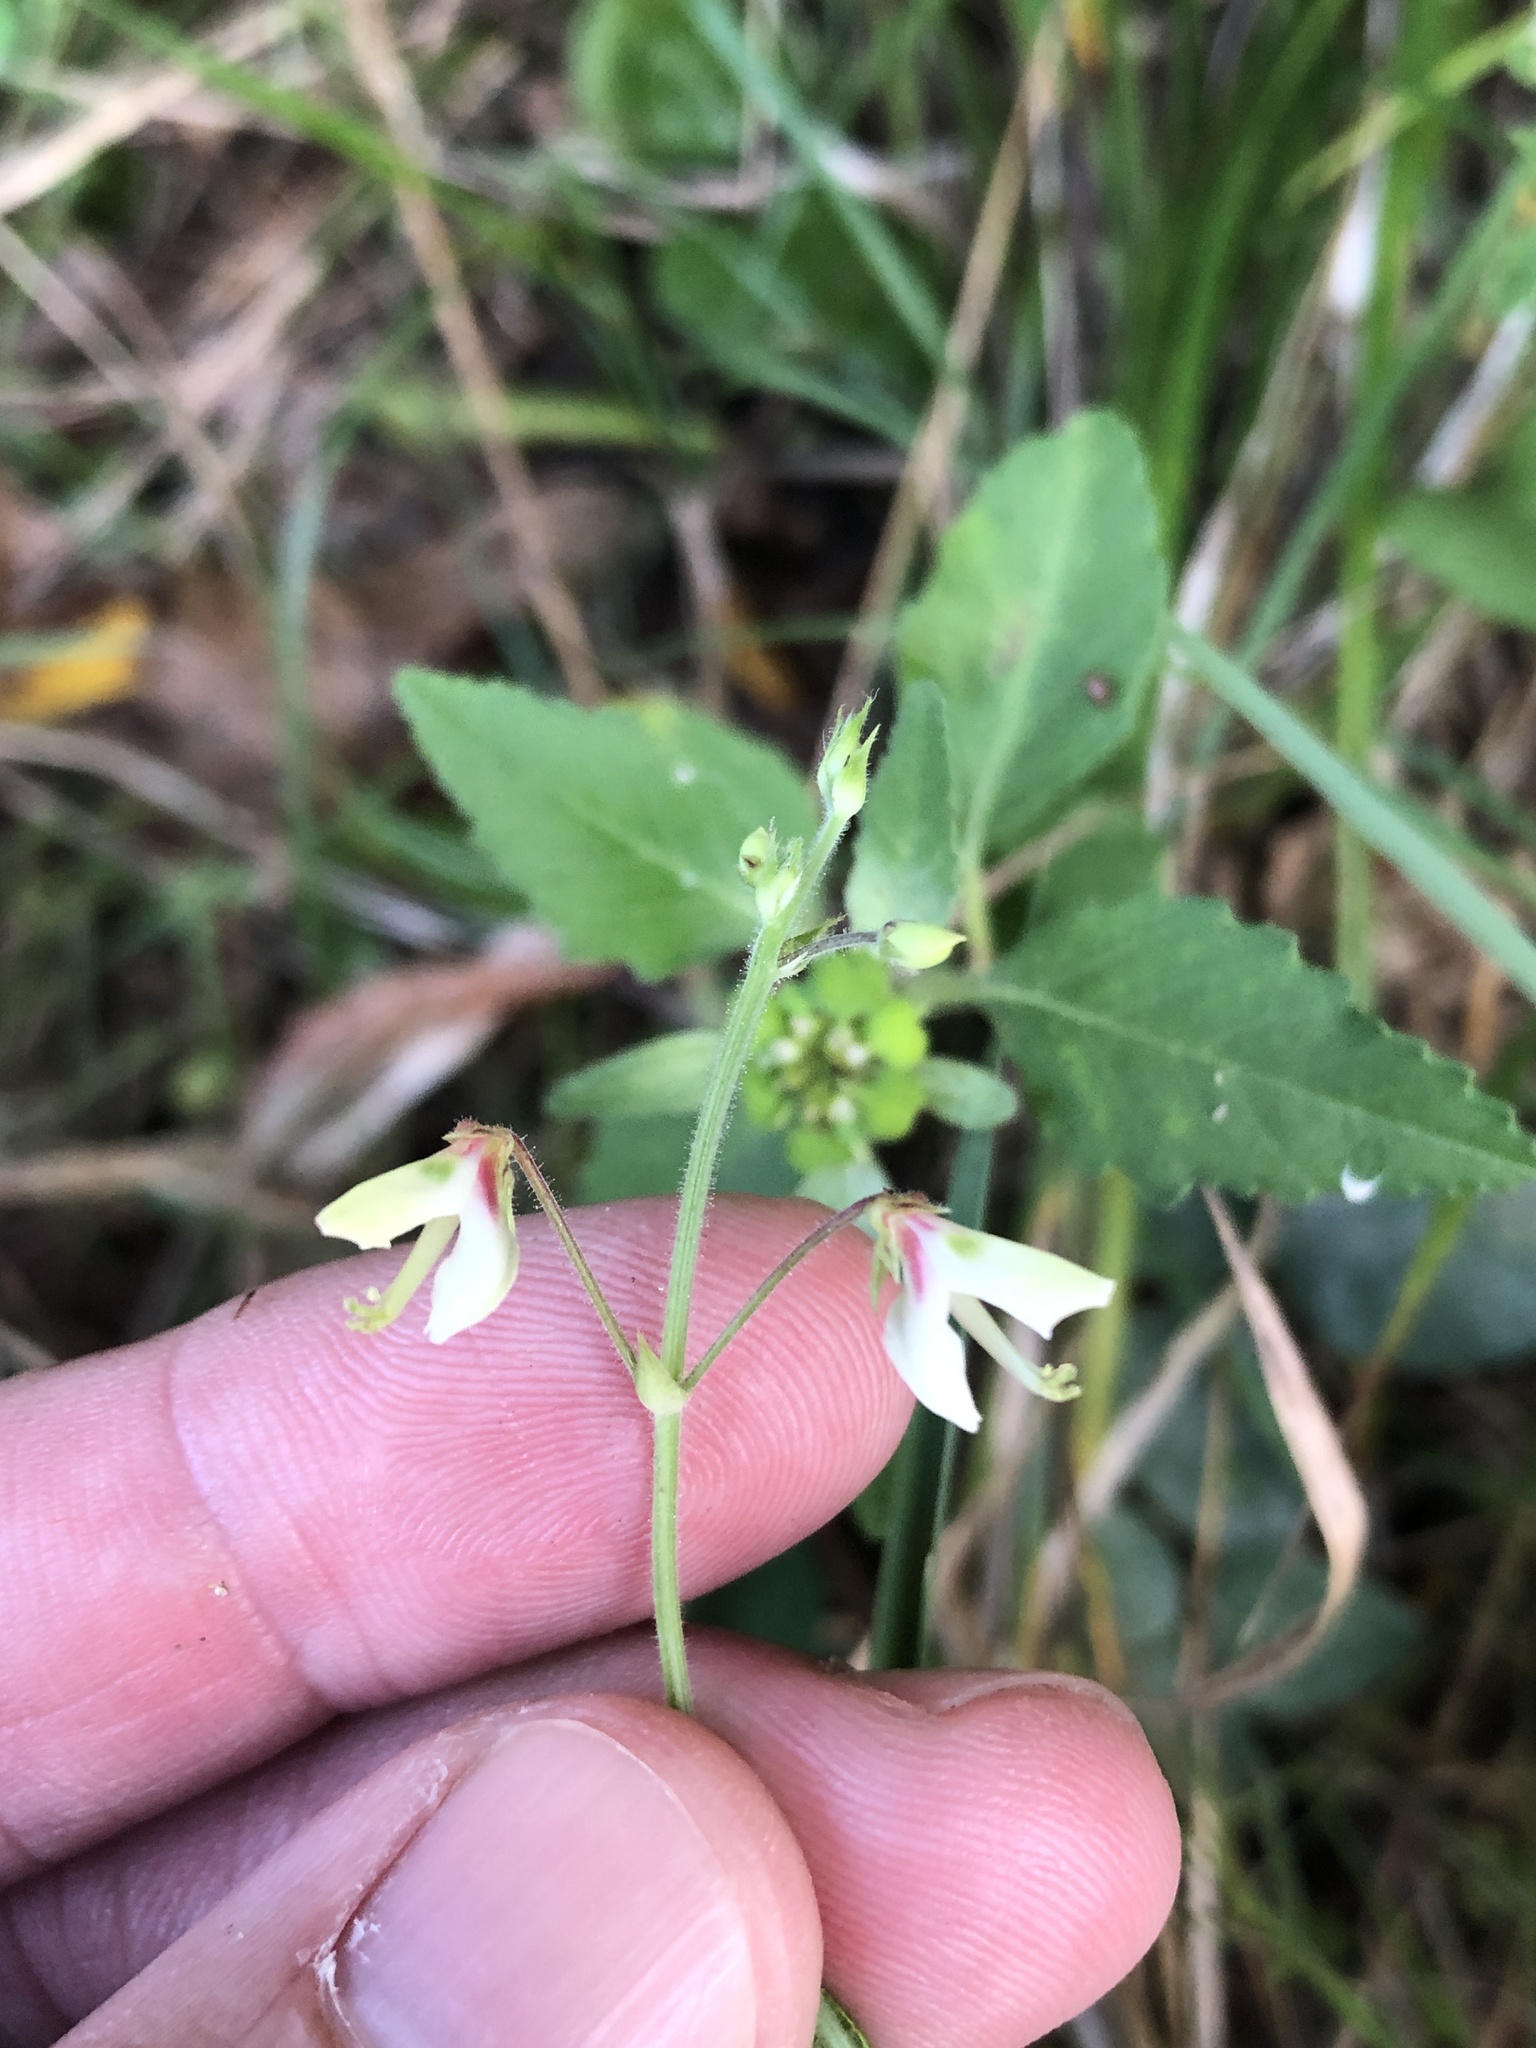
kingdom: Plantae
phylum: Tracheophyta
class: Magnoliopsida
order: Fabales
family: Fabaceae
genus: Desmodium
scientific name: Desmodium tweedyi
